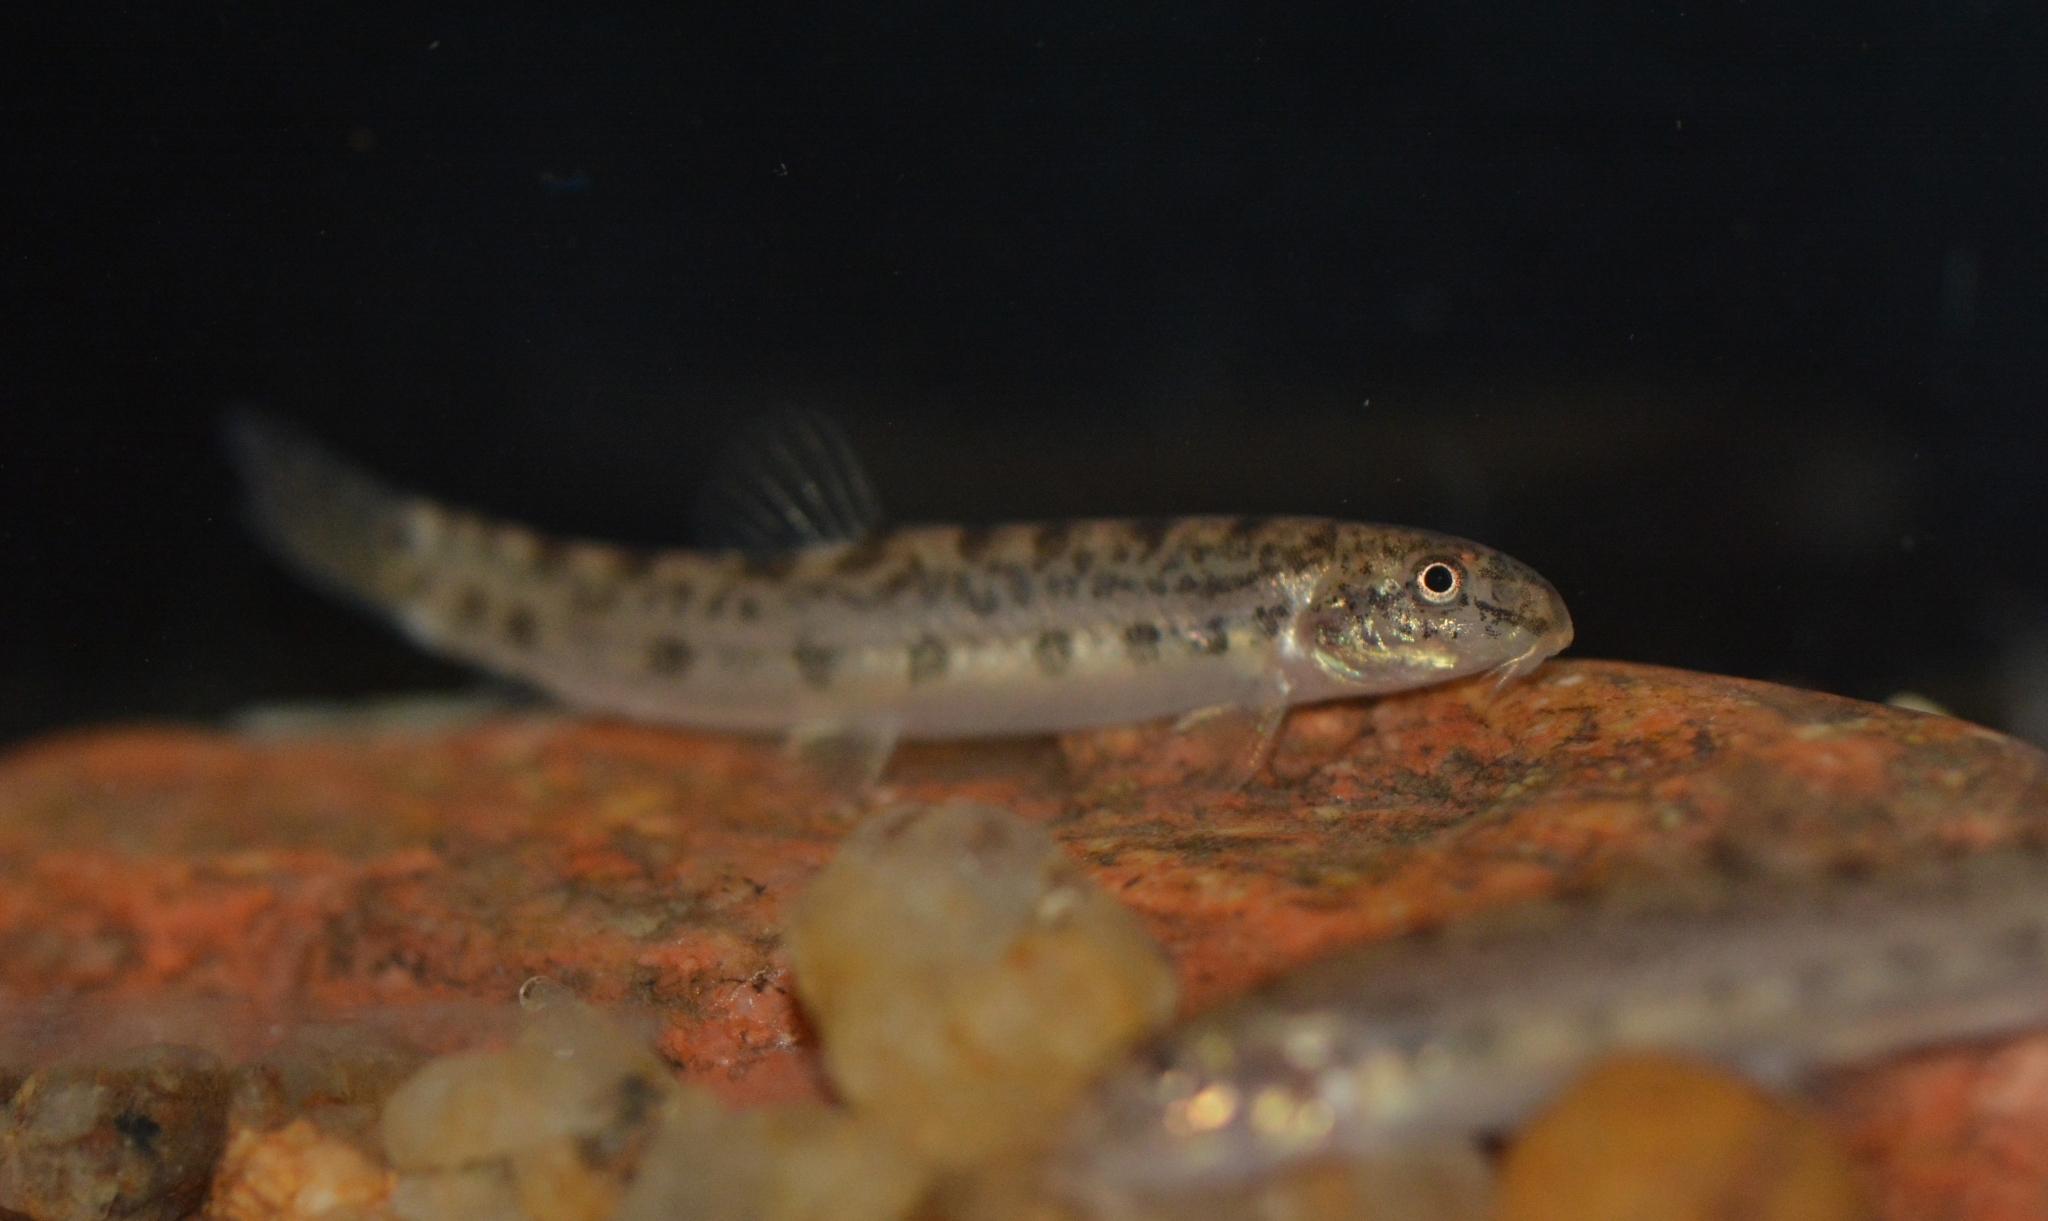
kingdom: Animalia
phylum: Chordata
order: Cypriniformes
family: Cobitidae
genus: Lepidocephalichthys
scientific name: Lepidocephalichthys thermalis
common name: Common spiny loach
